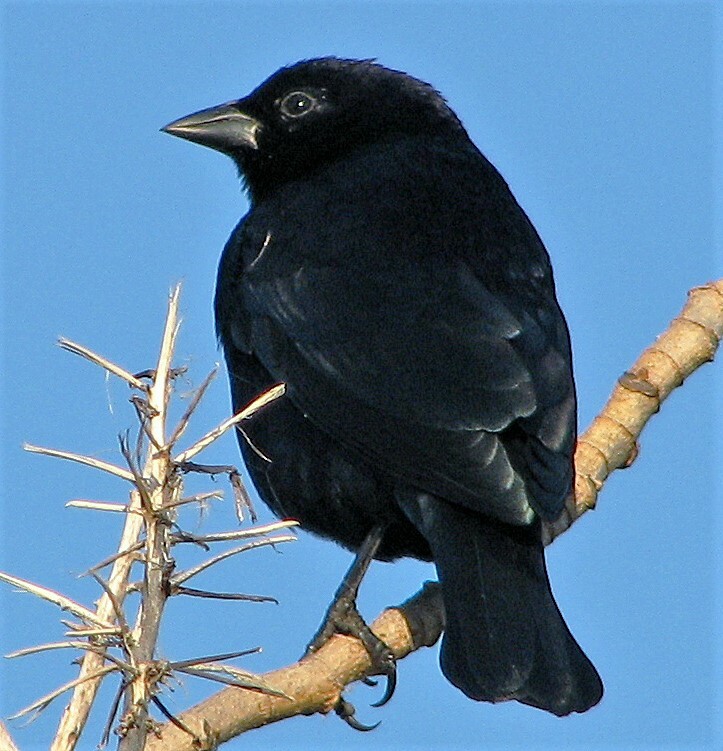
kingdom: Animalia
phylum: Chordata
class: Aves
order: Passeriformes
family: Icteridae
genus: Molothrus
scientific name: Molothrus rufoaxillaris
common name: Screaming cowbird
